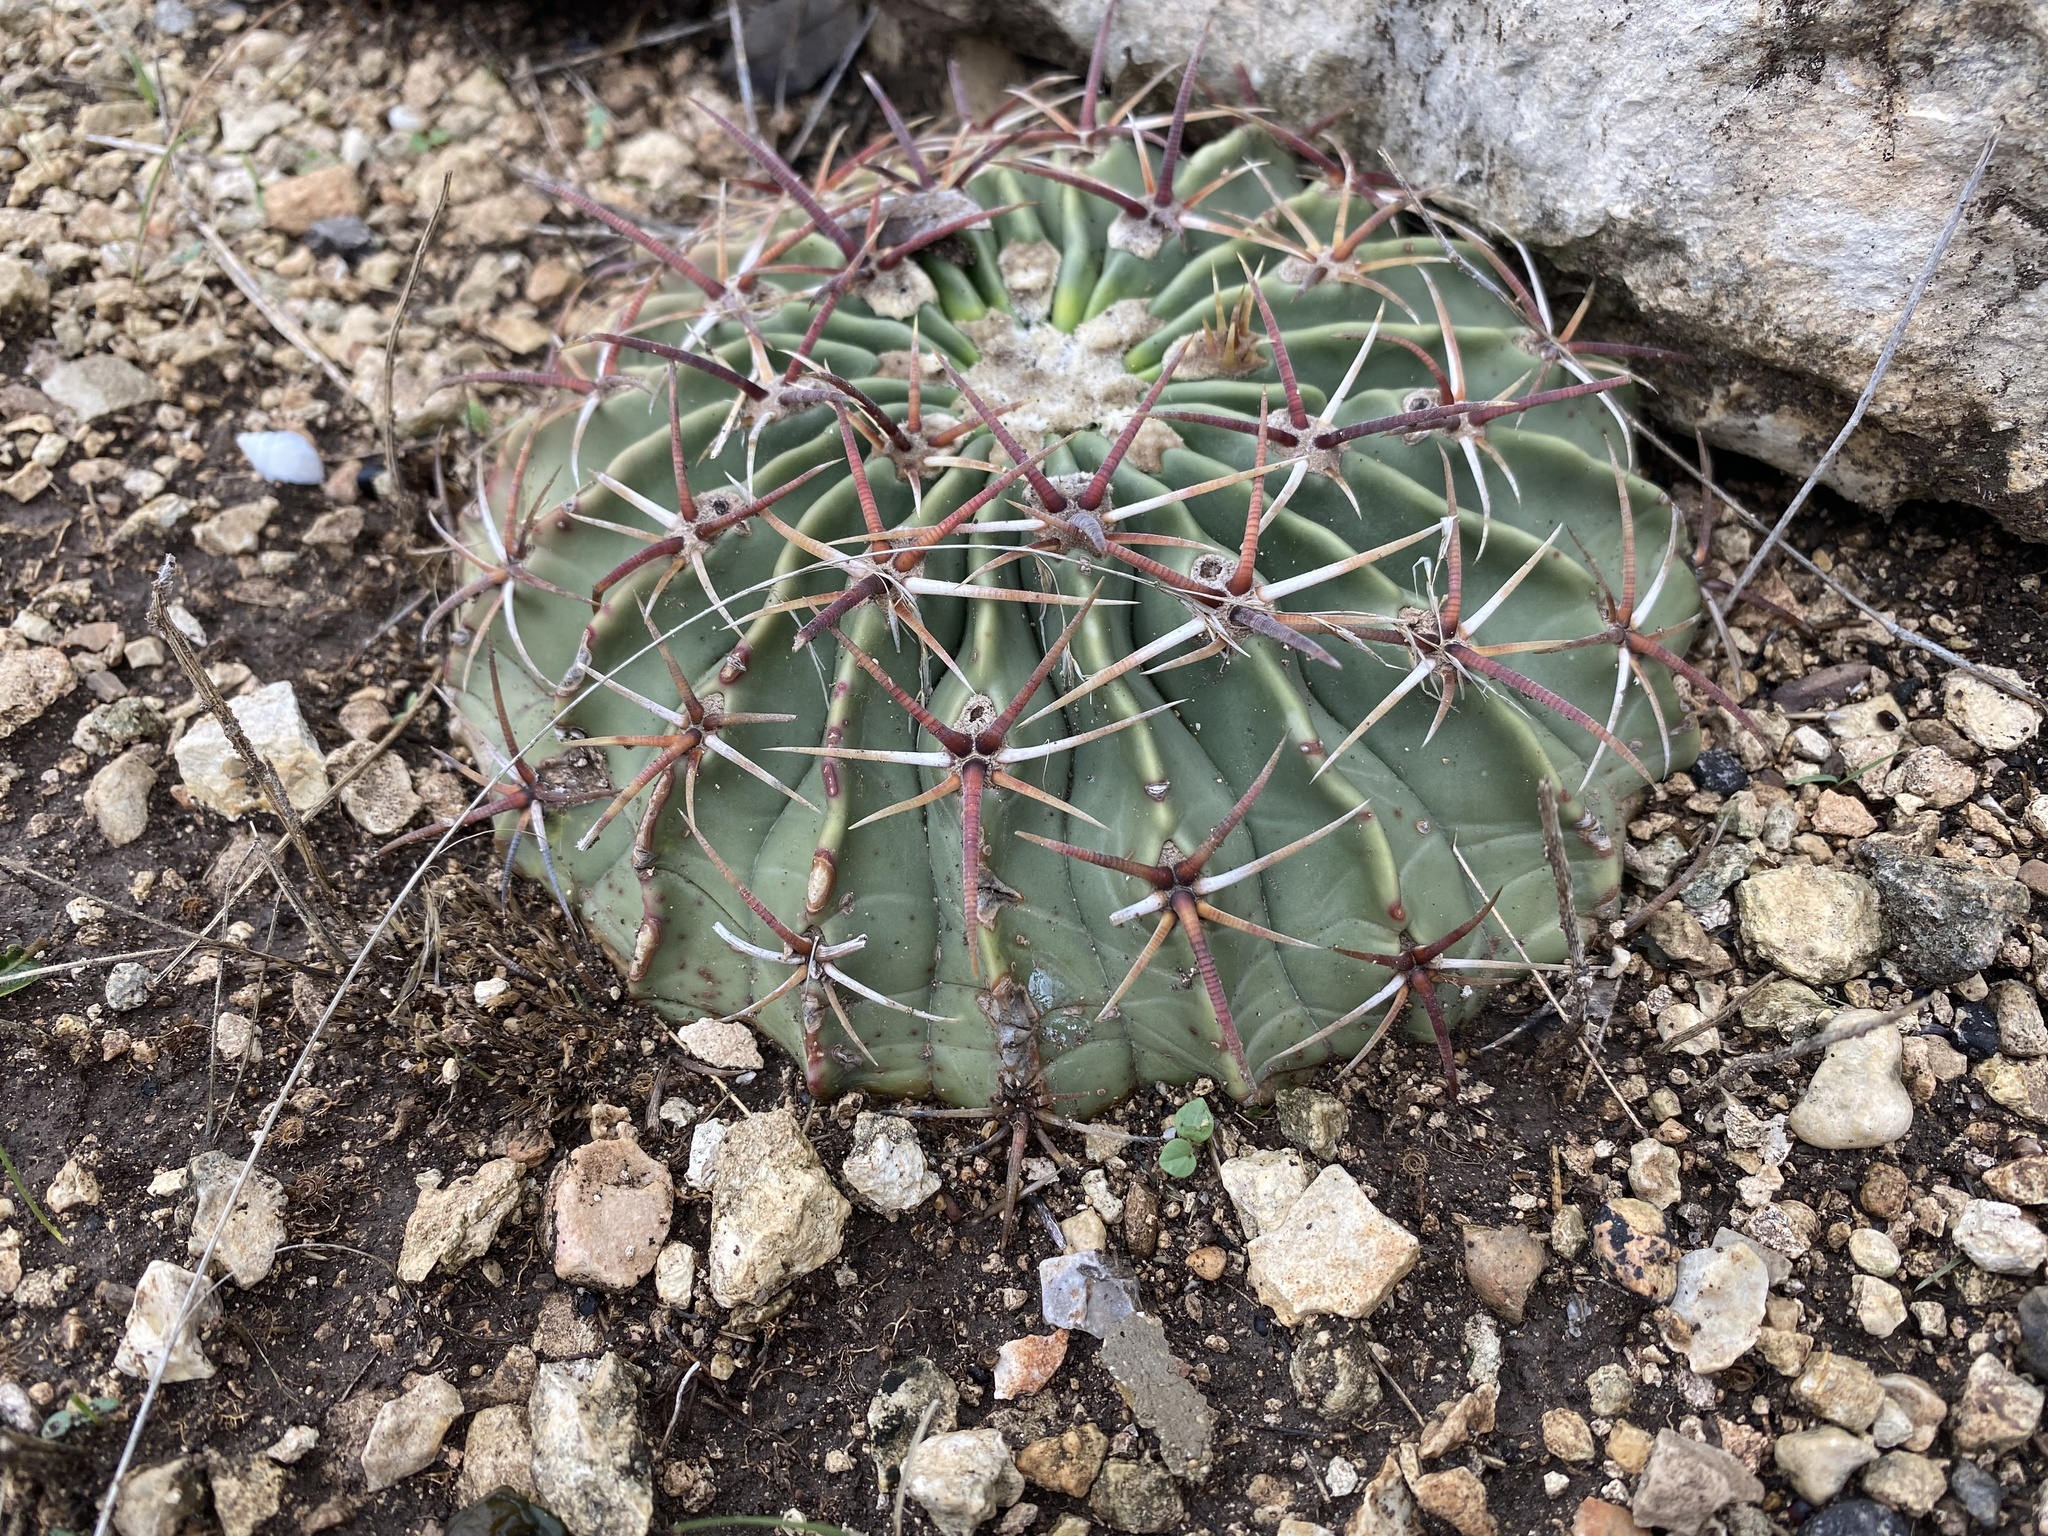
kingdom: Plantae
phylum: Tracheophyta
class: Magnoliopsida
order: Caryophyllales
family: Cactaceae
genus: Echinocactus
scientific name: Echinocactus texensis
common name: Devil's pincushion
